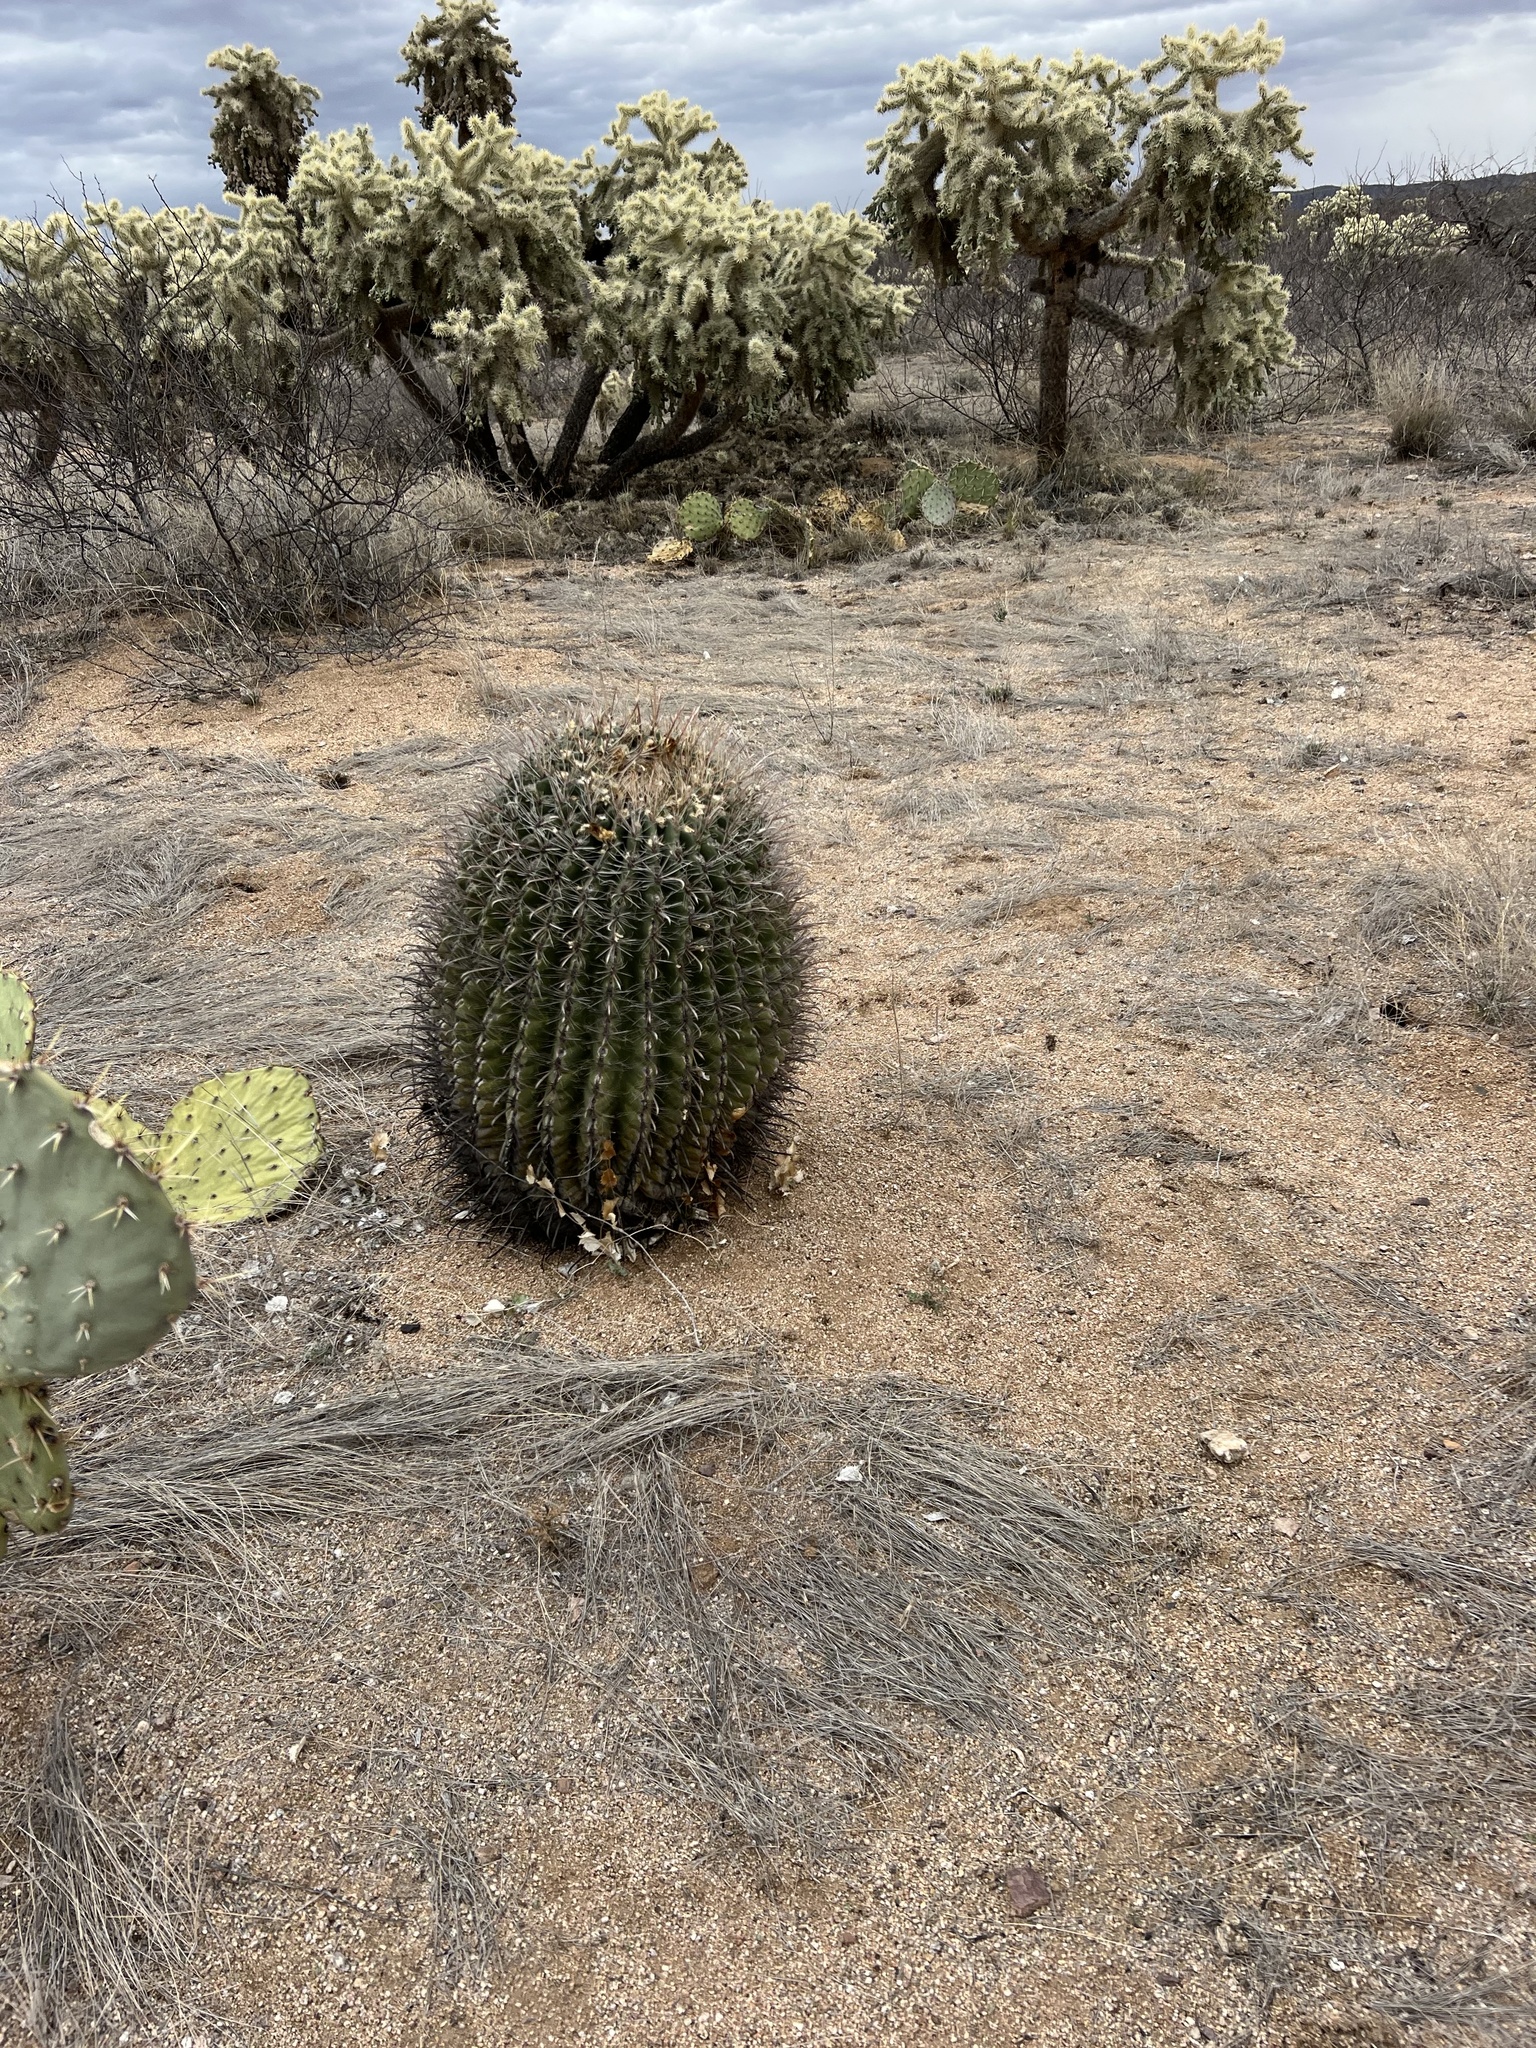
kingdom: Plantae
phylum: Tracheophyta
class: Magnoliopsida
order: Caryophyllales
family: Cactaceae
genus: Ferocactus
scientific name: Ferocactus wislizeni
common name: Candy barrel cactus
